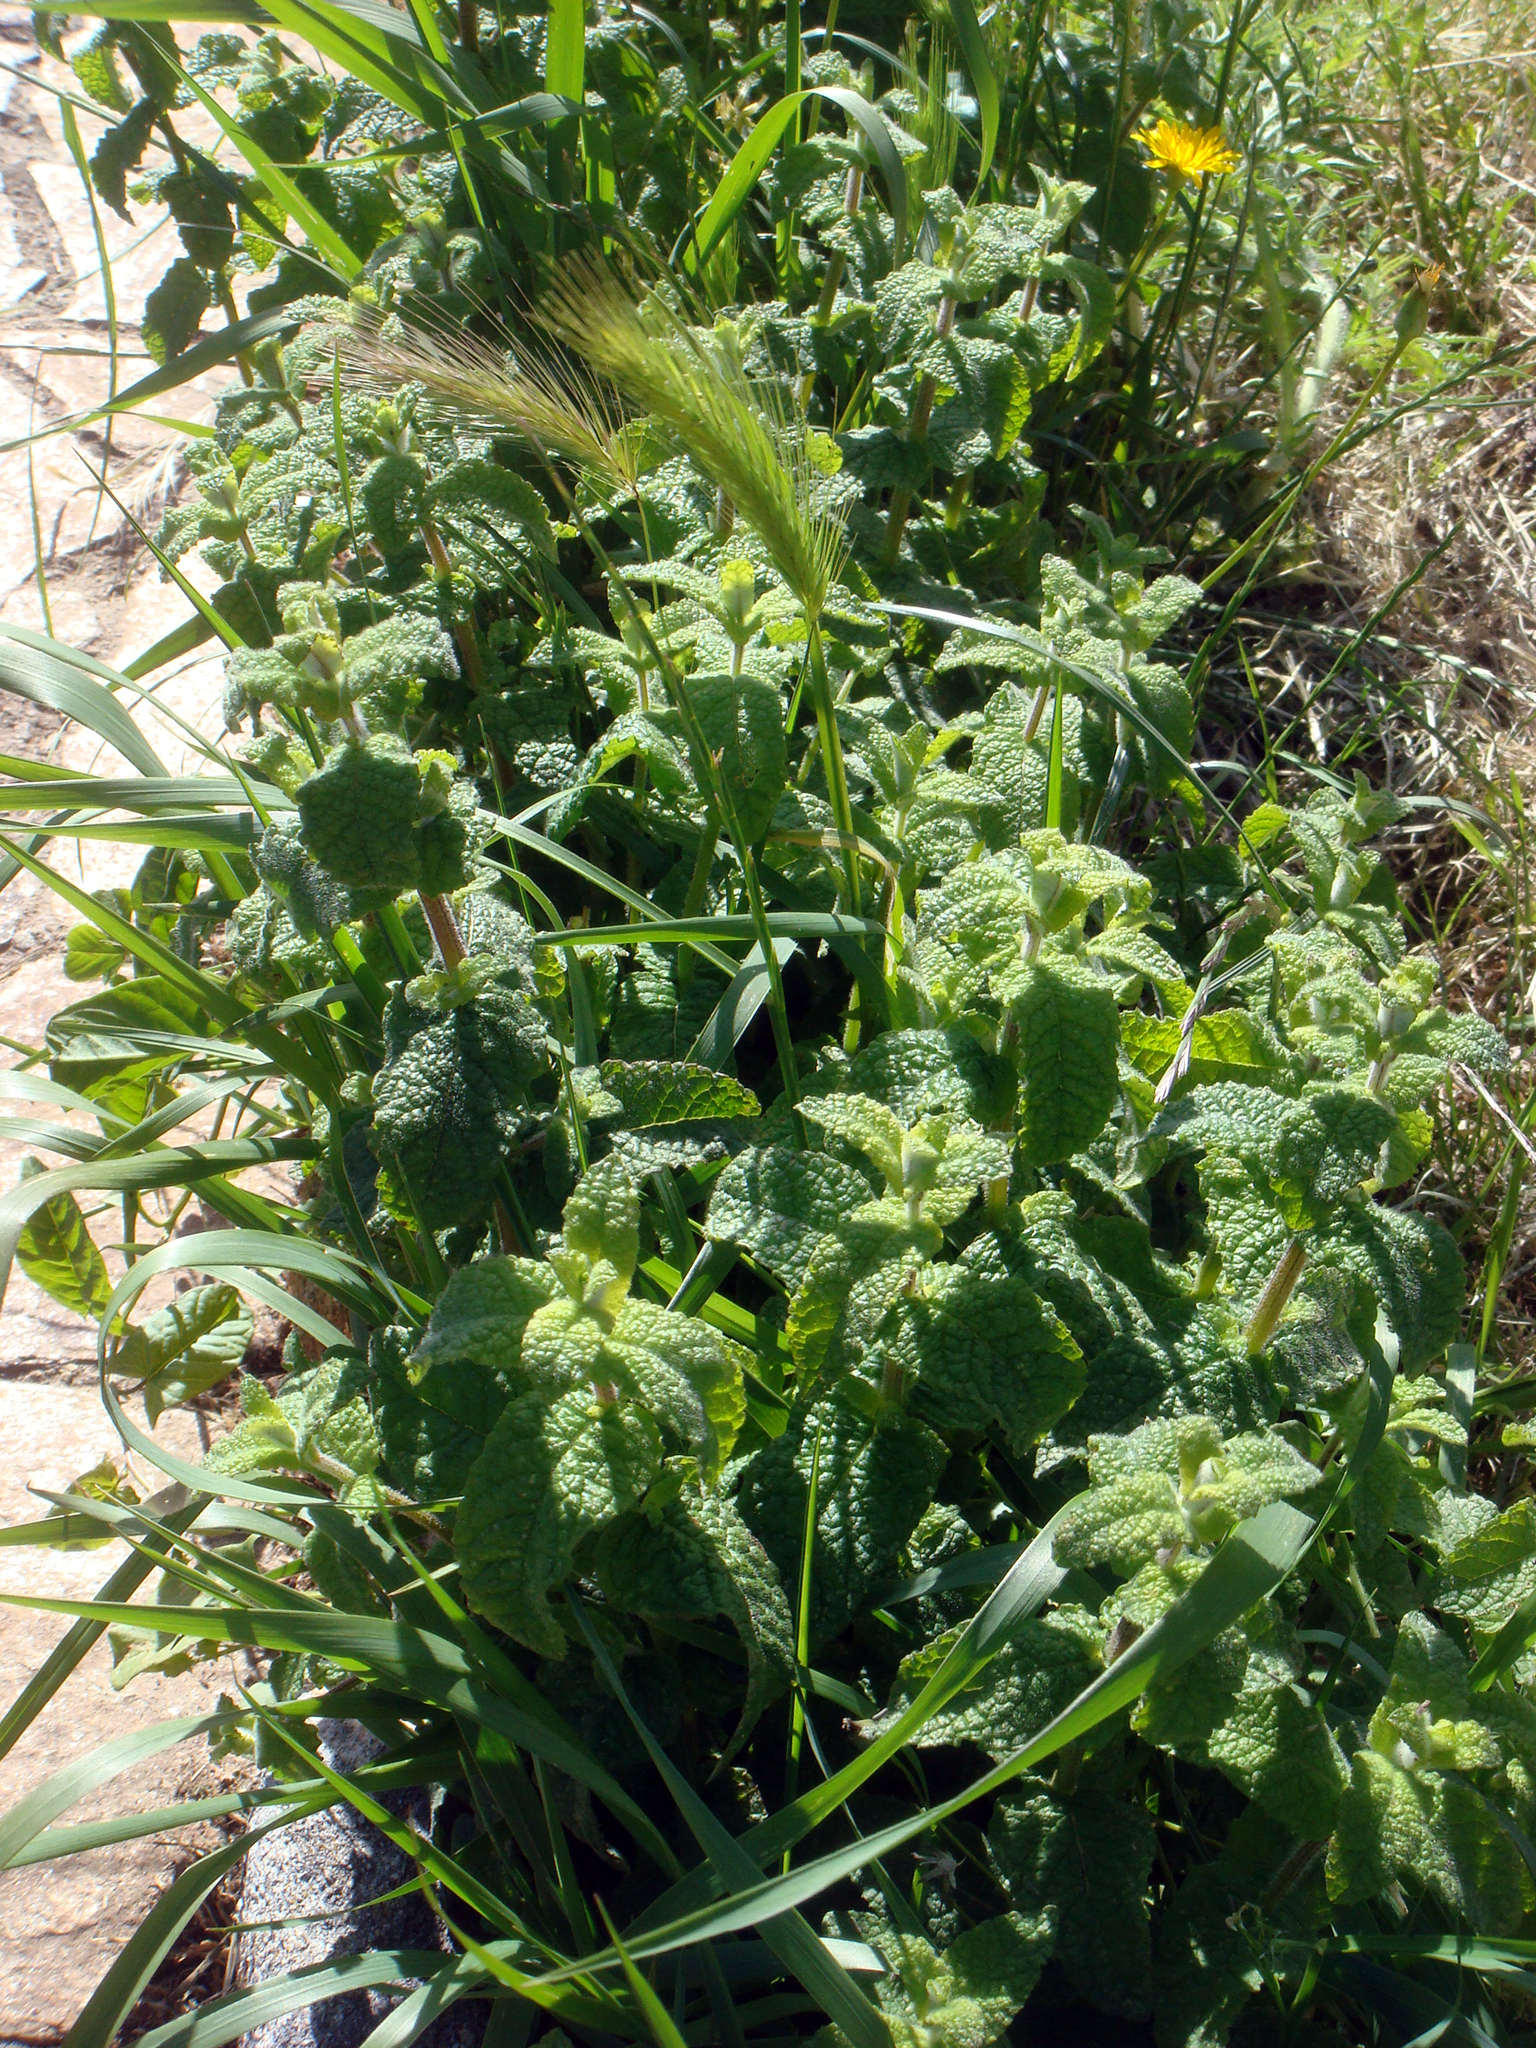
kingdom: Plantae
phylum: Tracheophyta
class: Magnoliopsida
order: Lamiales
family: Lamiaceae
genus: Mentha
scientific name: Mentha suaveolens
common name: Apple mint
